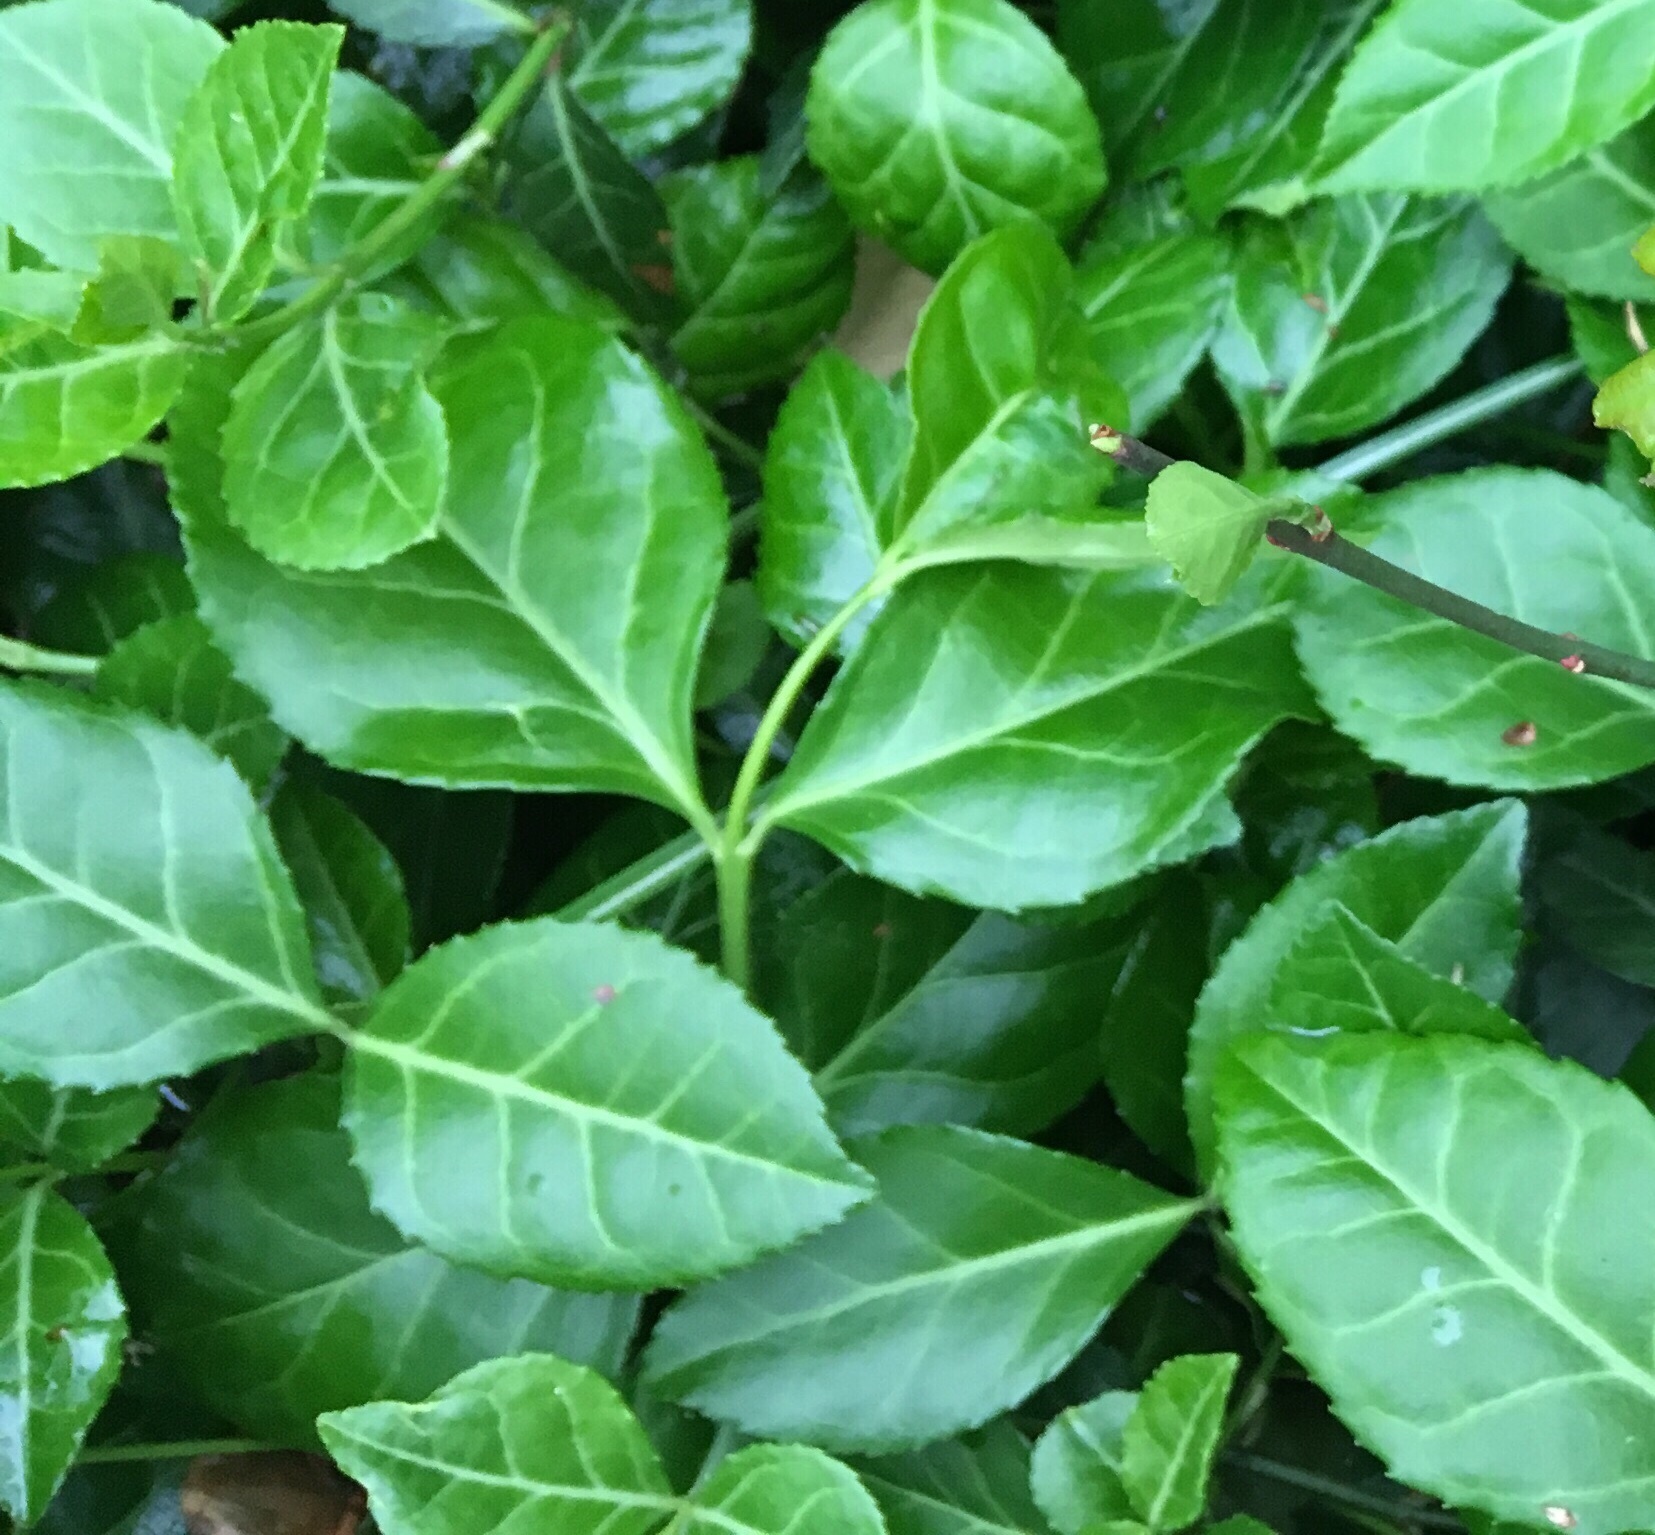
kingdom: Plantae
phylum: Tracheophyta
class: Magnoliopsida
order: Celastrales
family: Celastraceae
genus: Euonymus
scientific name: Euonymus fortunei
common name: Climbing euonymus
